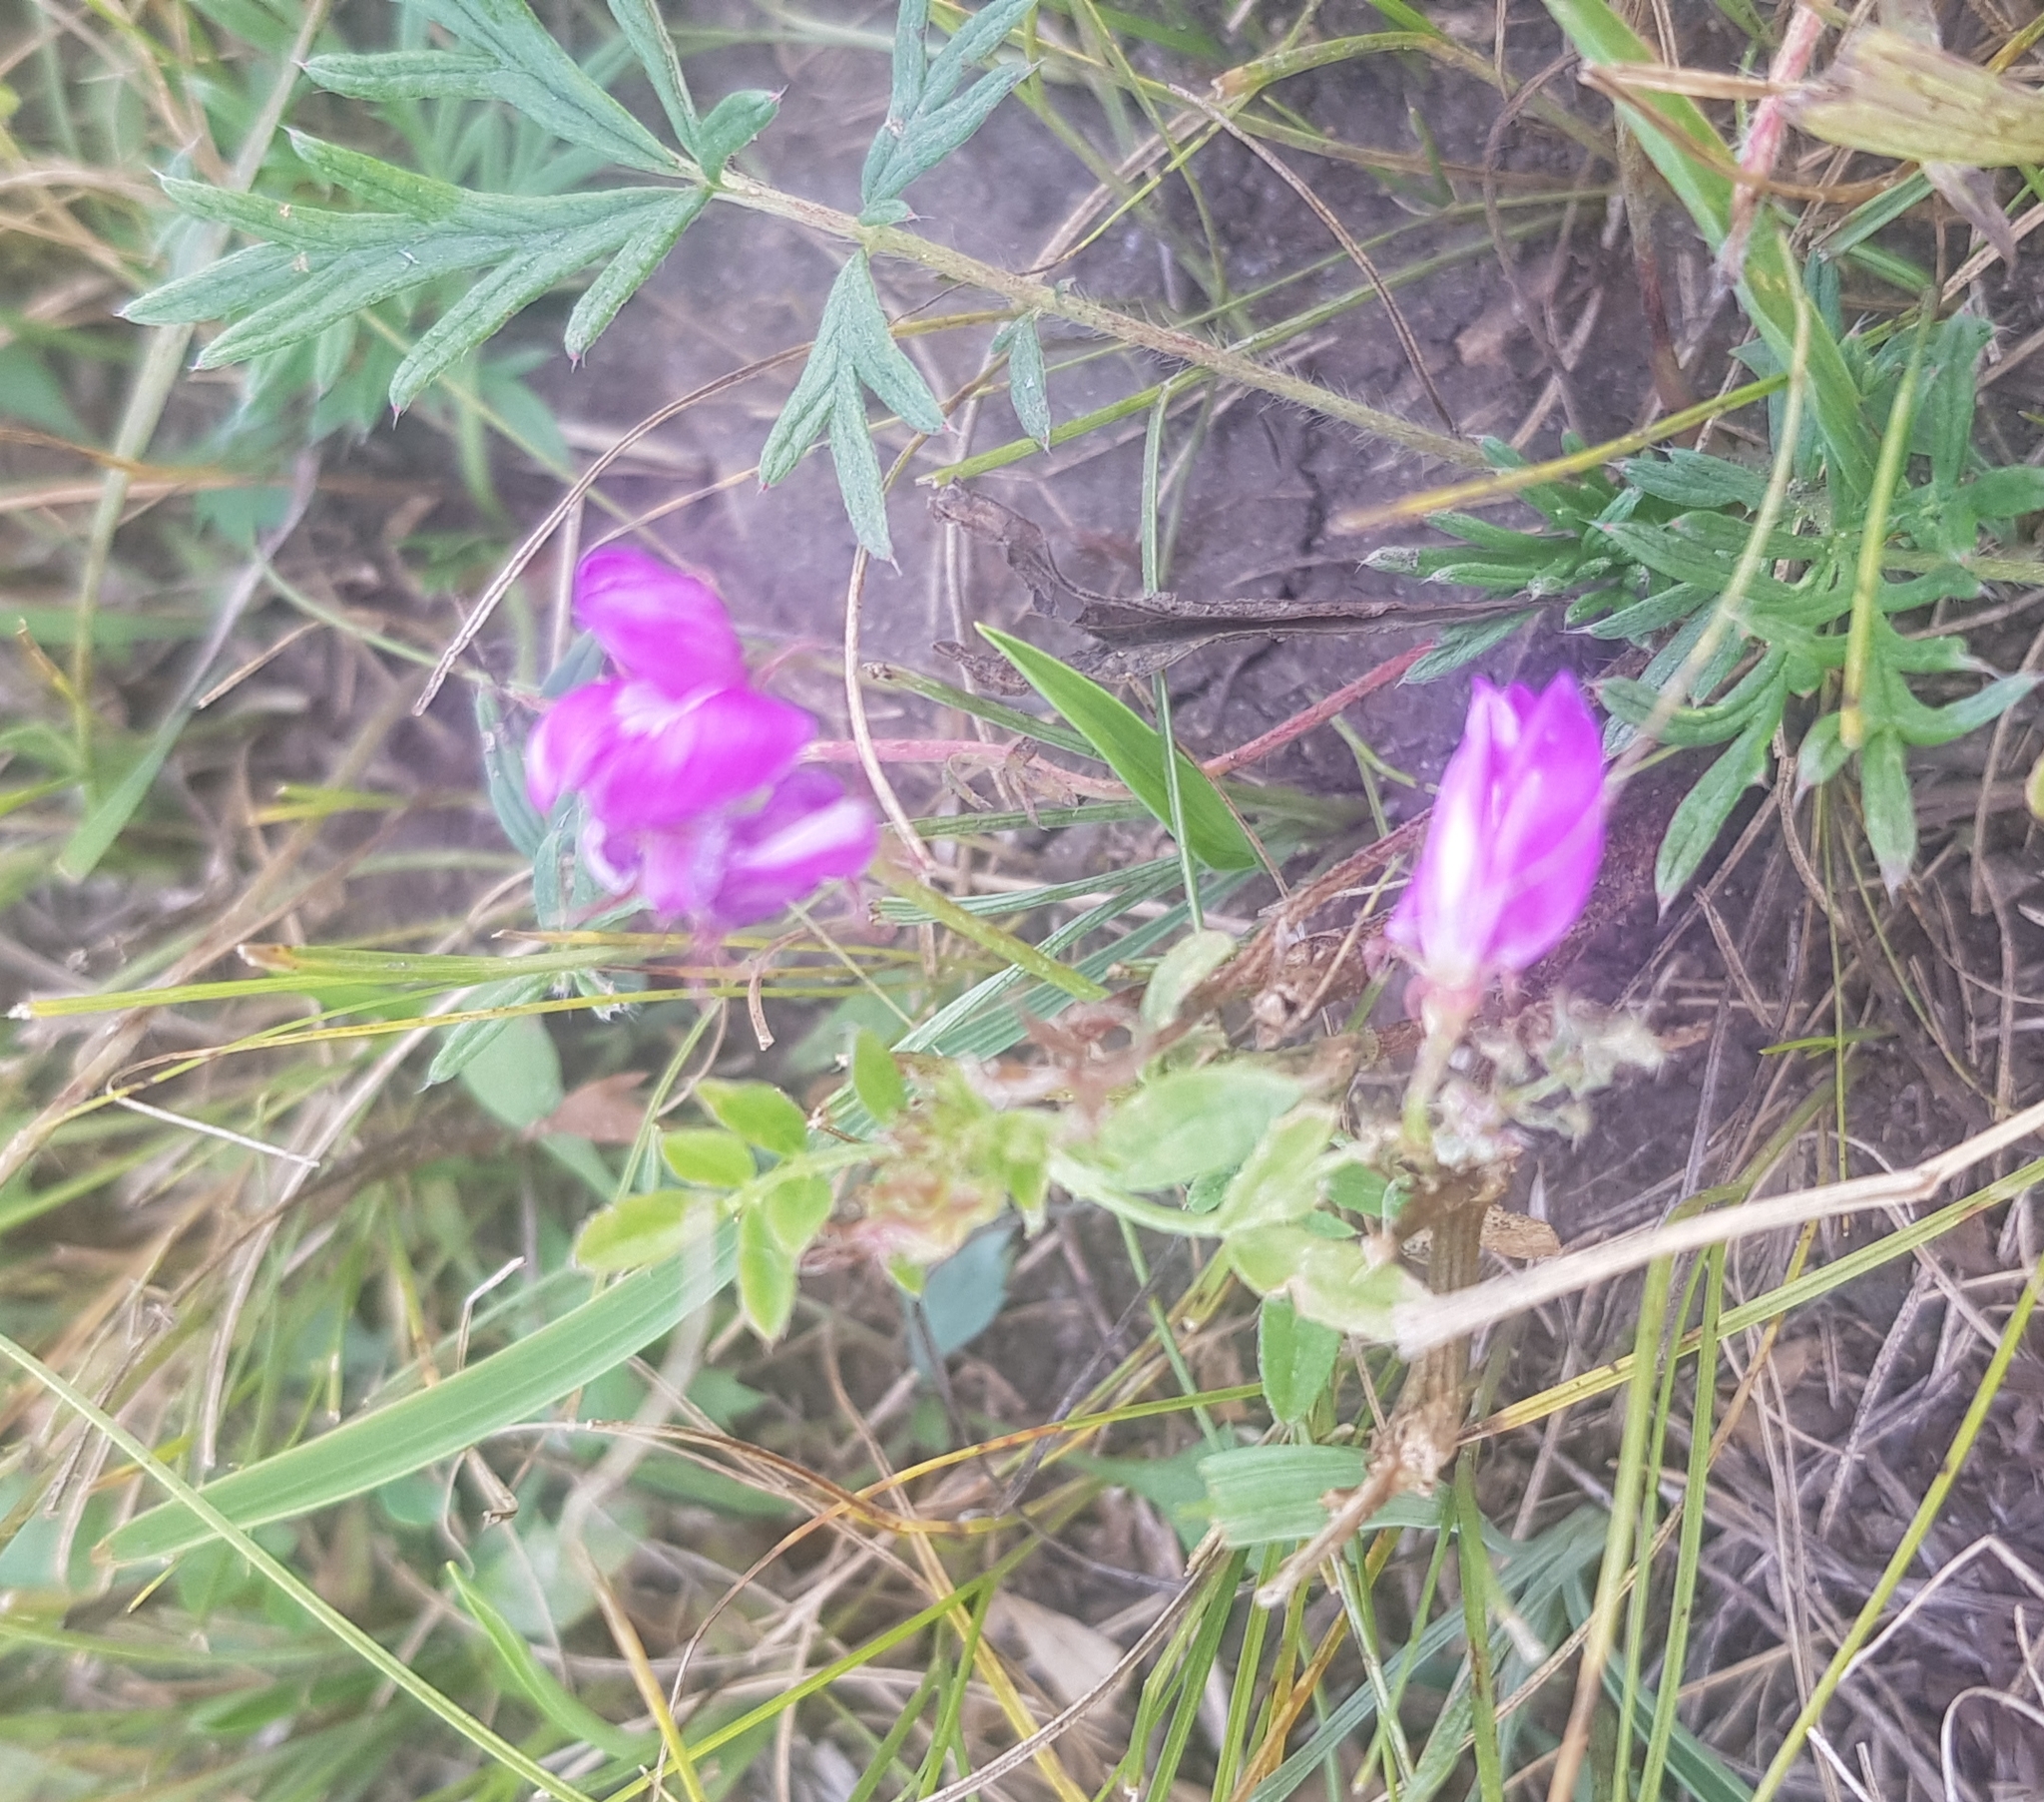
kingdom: Plantae
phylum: Tracheophyta
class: Magnoliopsida
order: Fabales
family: Fabaceae
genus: Gueldenstaedtia
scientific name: Gueldenstaedtia verna
